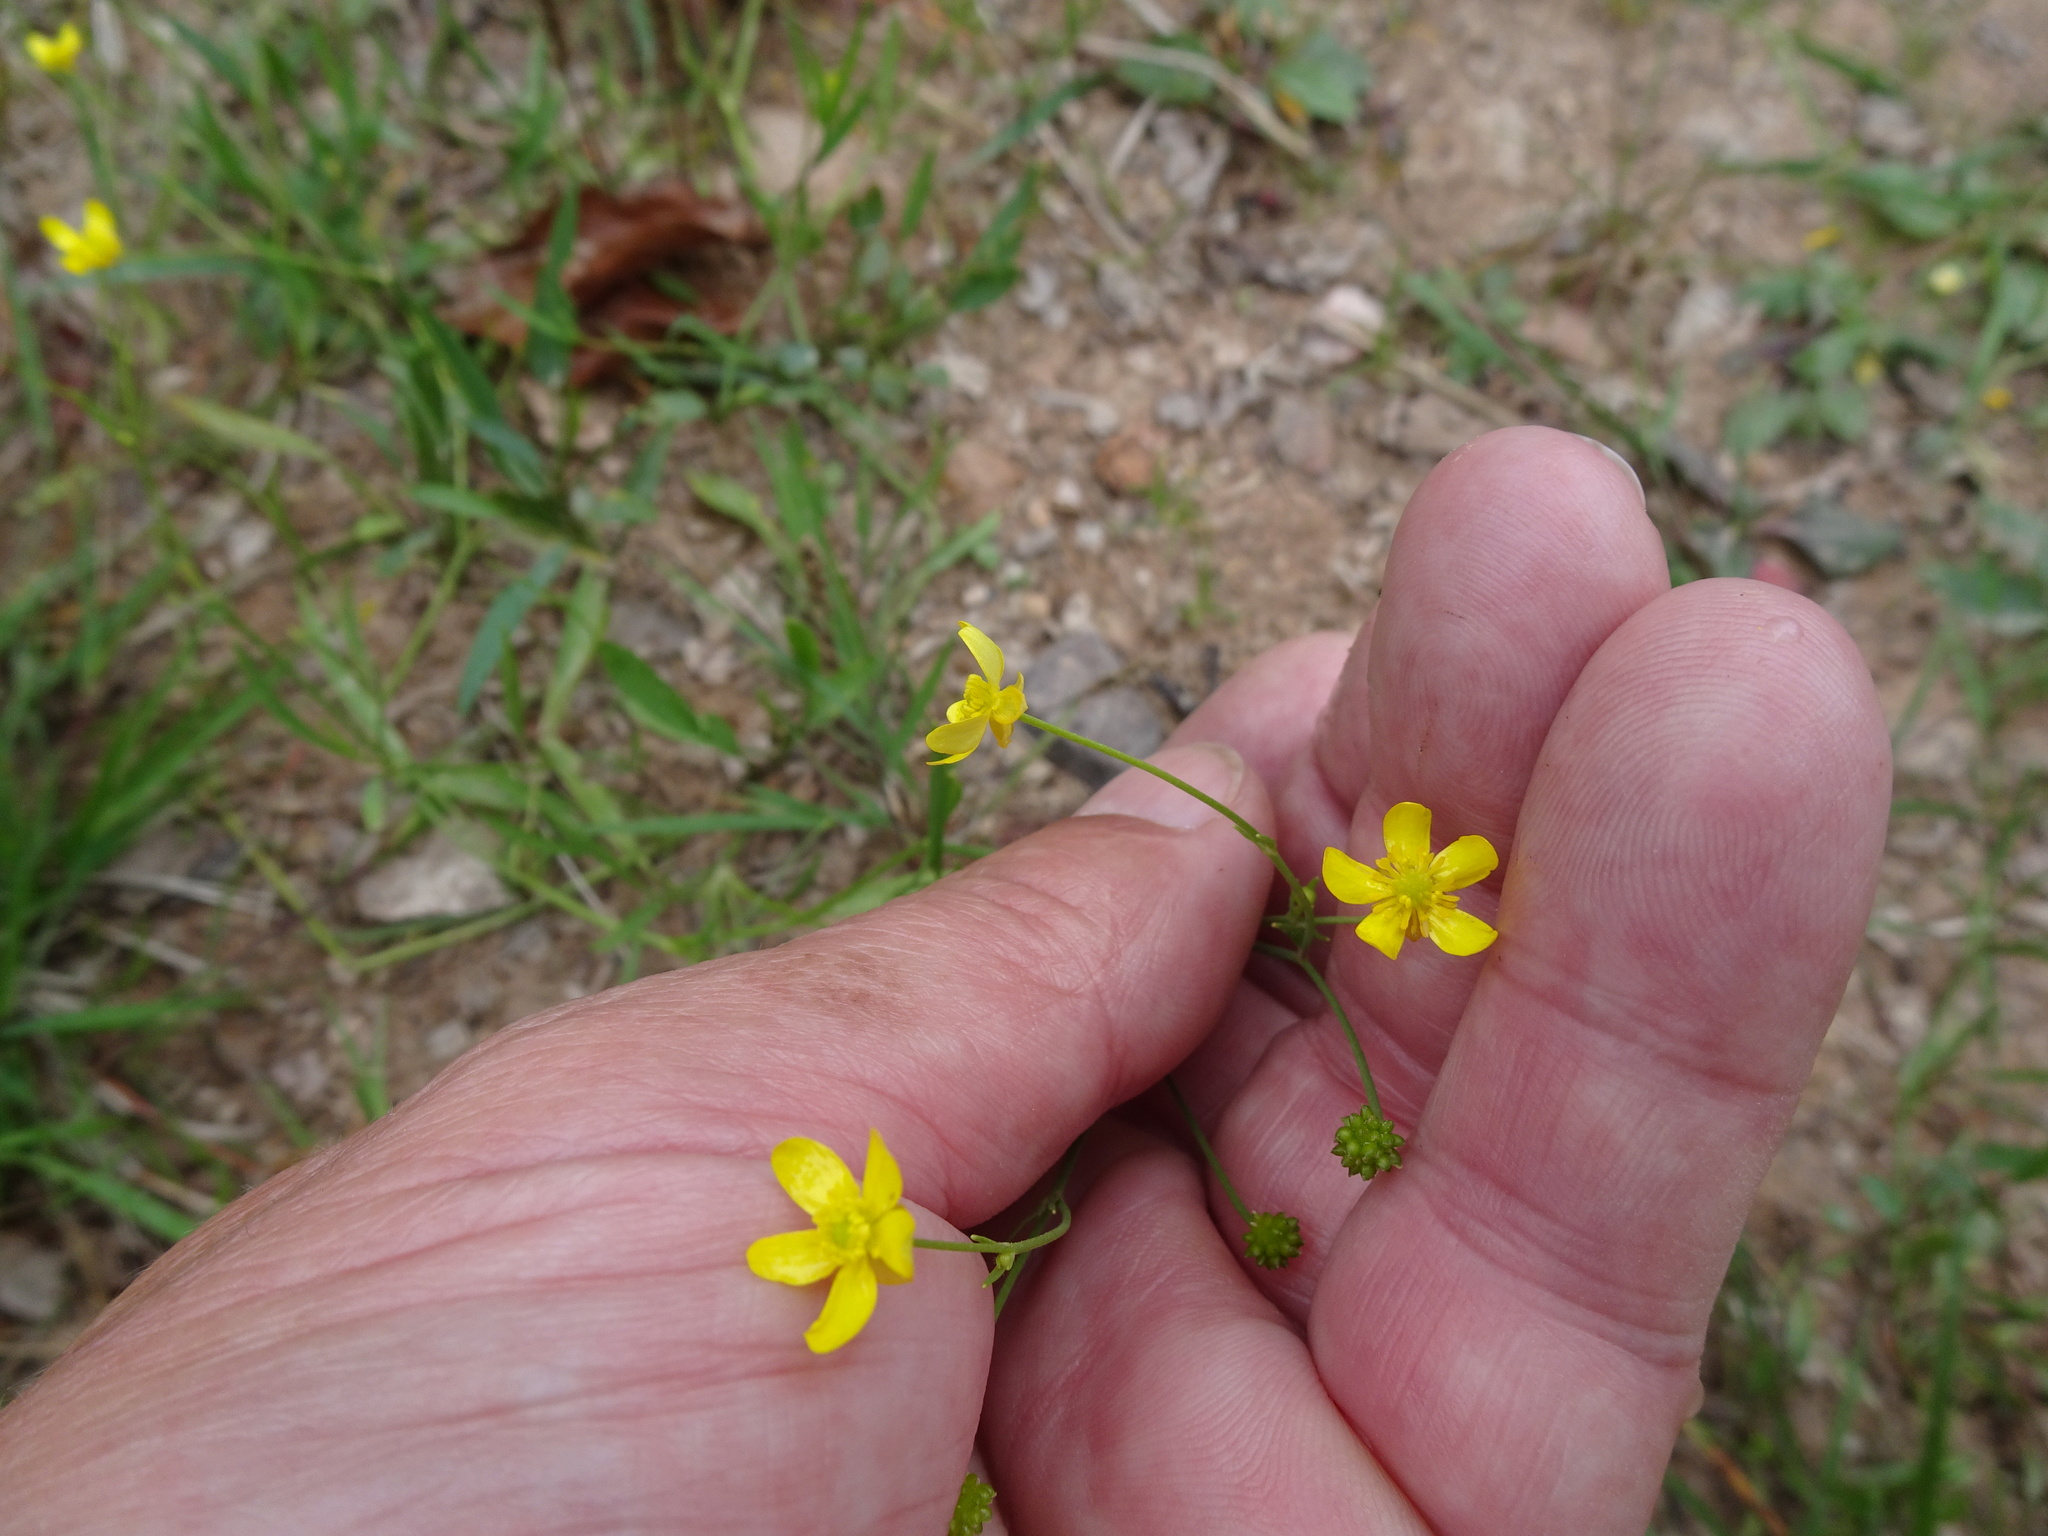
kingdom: Plantae
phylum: Tracheophyta
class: Magnoliopsida
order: Ranunculales
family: Ranunculaceae
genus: Ranunculus
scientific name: Ranunculus flammula
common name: Lesser spearwort
